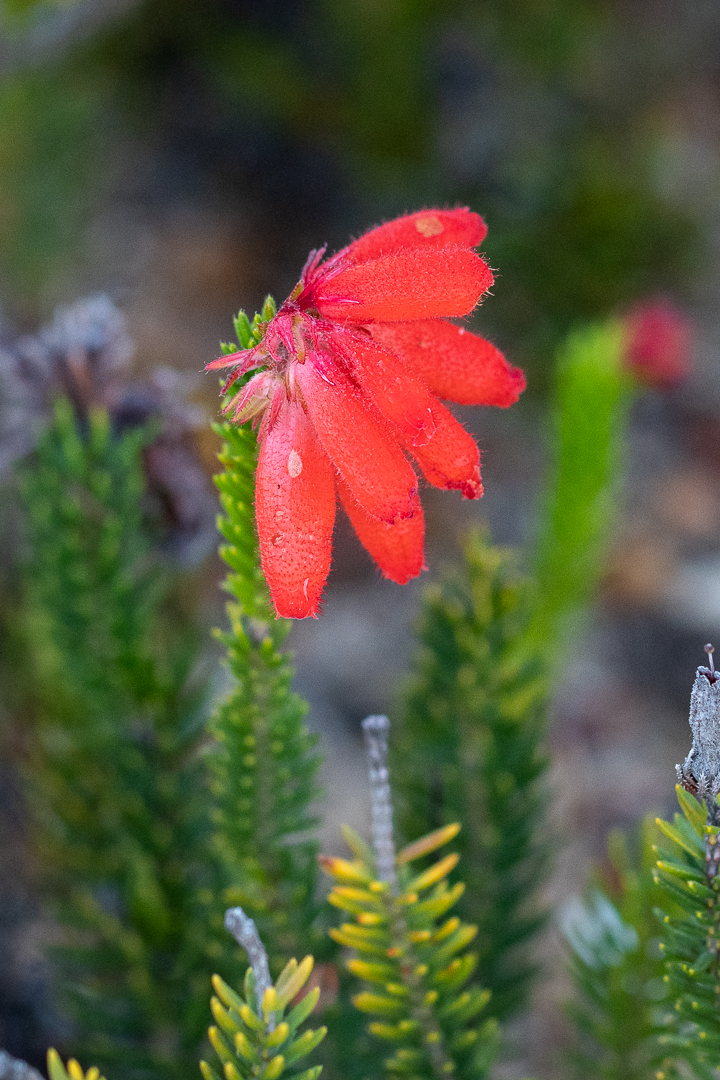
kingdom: Plantae
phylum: Tracheophyta
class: Magnoliopsida
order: Ericales
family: Ericaceae
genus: Erica
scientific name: Erica cerinthoides
